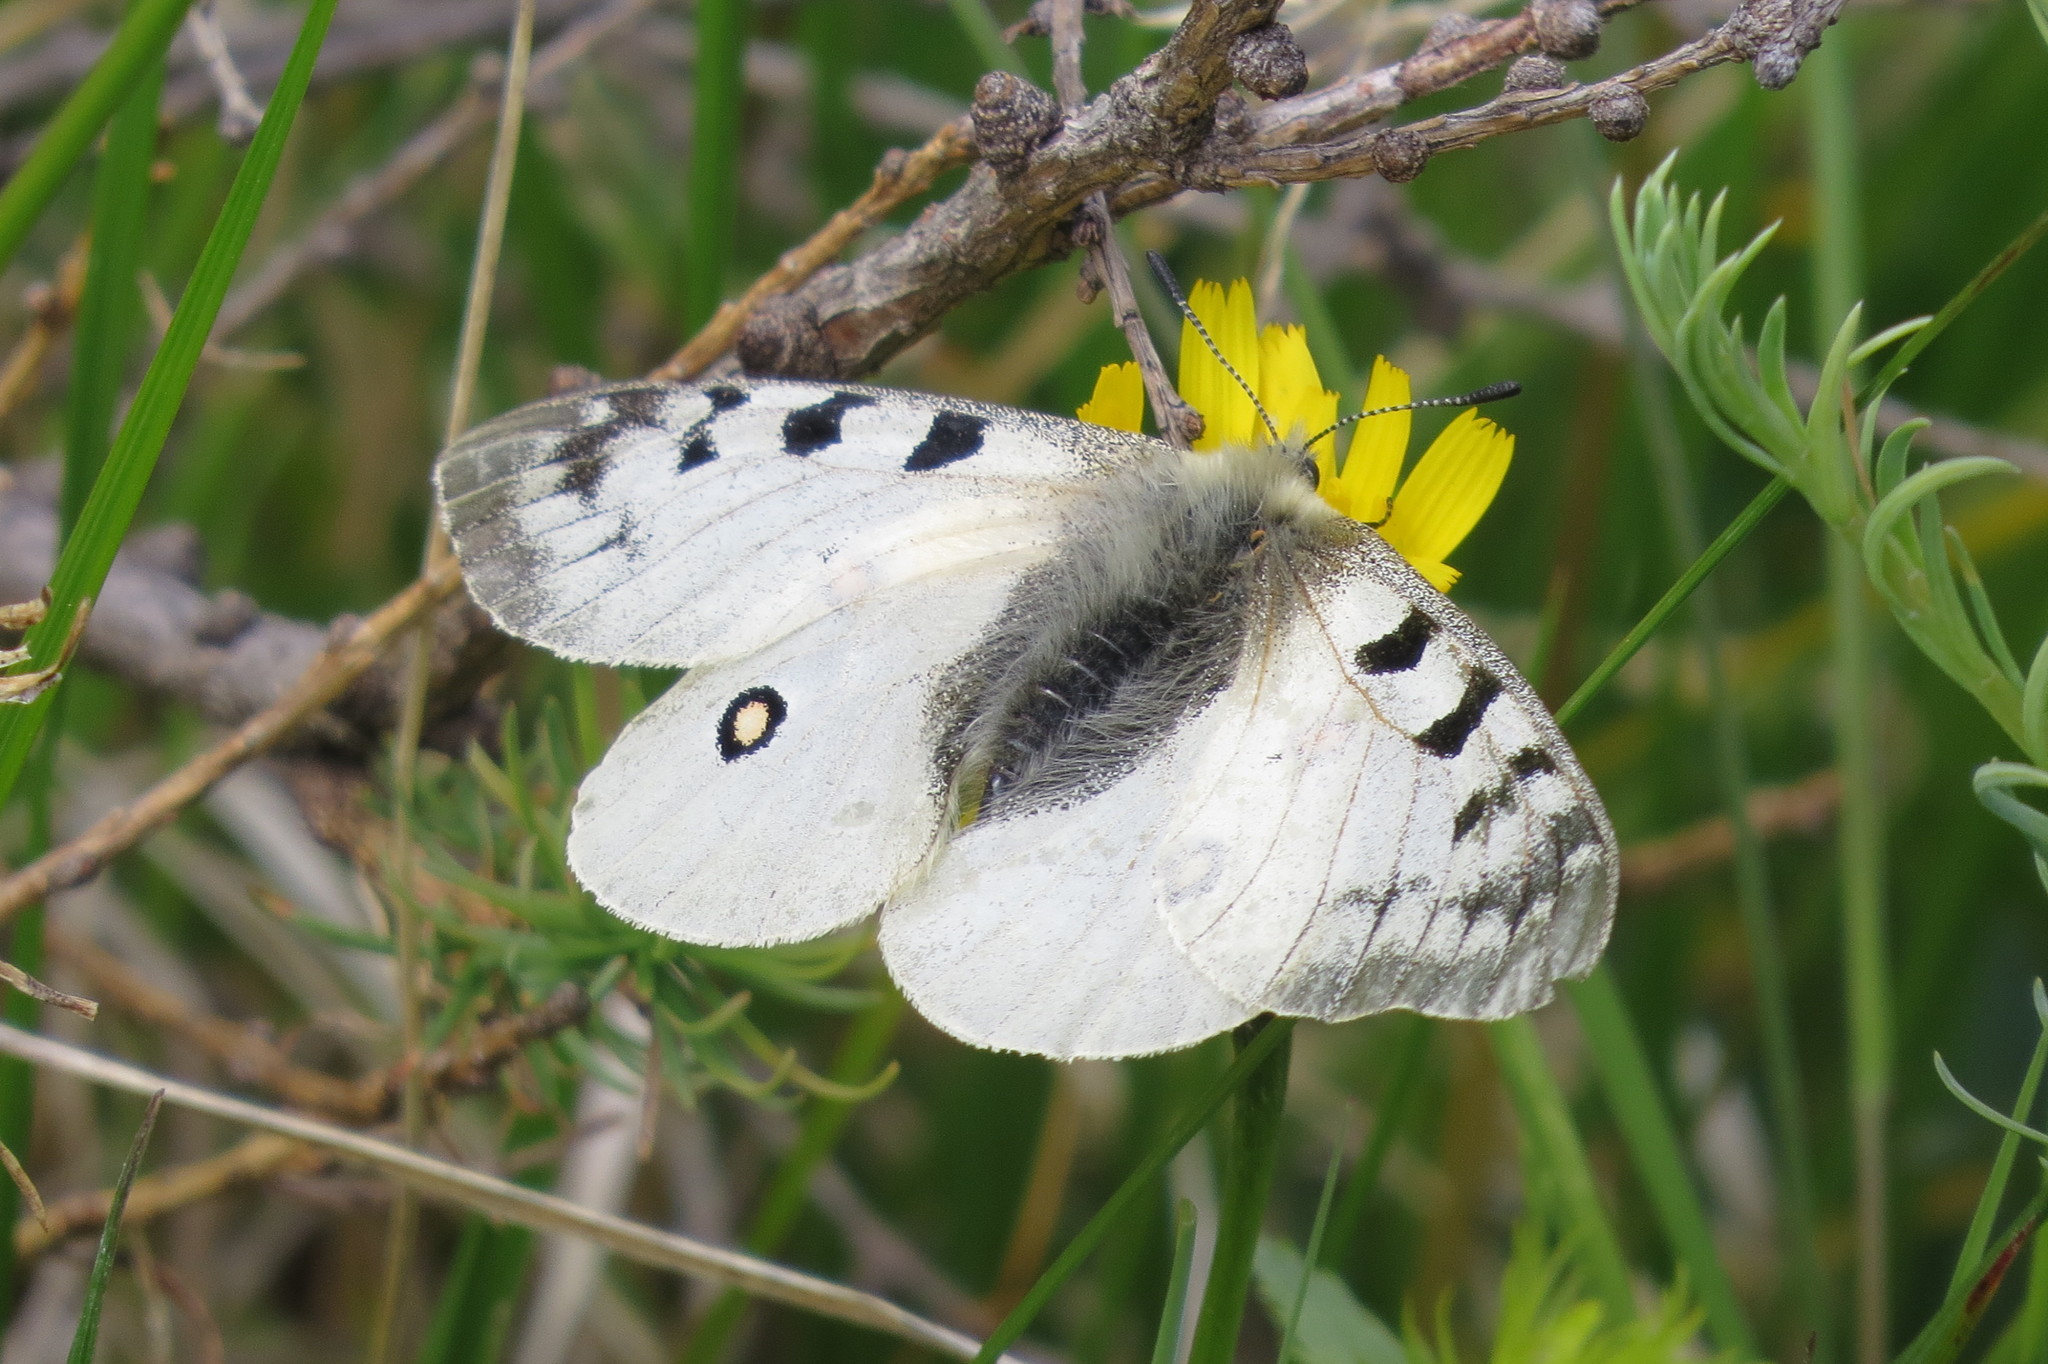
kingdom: Animalia
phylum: Arthropoda
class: Insecta
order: Lepidoptera
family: Papilionidae
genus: Parnassius
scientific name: Parnassius phoebus
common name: Small apollo
